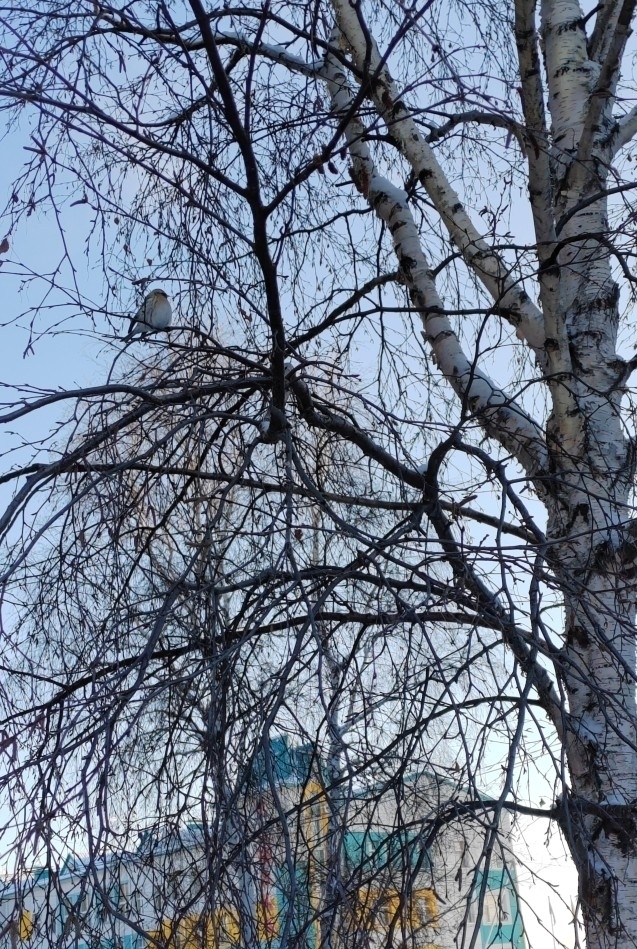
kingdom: Animalia
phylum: Chordata
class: Aves
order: Passeriformes
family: Fringillidae
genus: Acanthis
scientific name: Acanthis hornemanni
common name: Arctic redpoll
